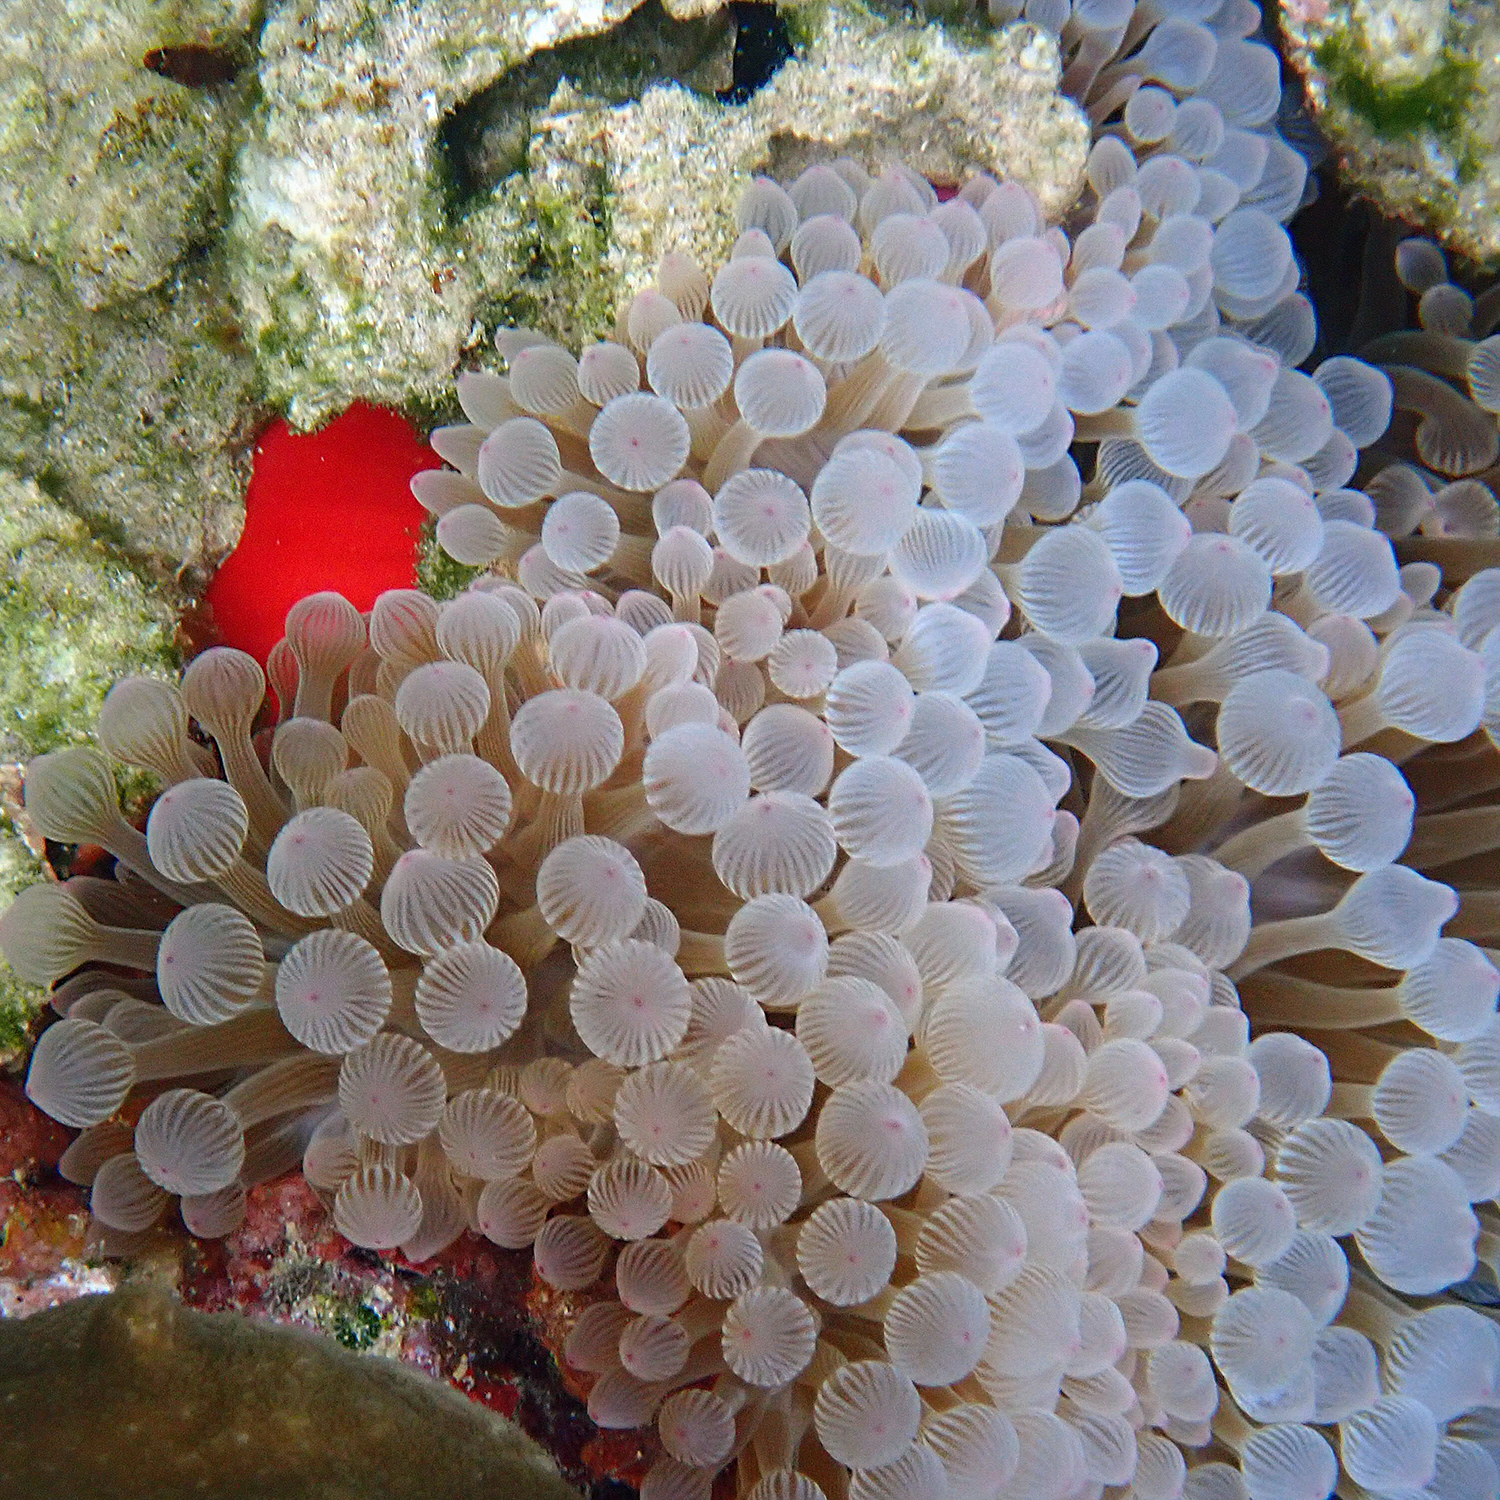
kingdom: Animalia
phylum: Cnidaria
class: Anthozoa
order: Actiniaria
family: Actiniidae
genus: Entacmaea
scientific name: Entacmaea quadricolor
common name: Bulb tentacle sea anemone
